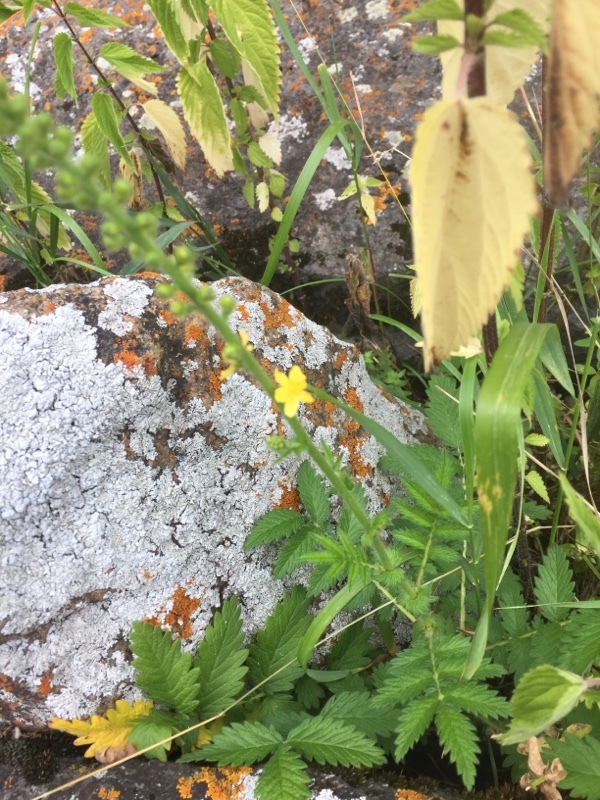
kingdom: Plantae
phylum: Tracheophyta
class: Magnoliopsida
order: Rosales
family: Rosaceae
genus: Agrimonia
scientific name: Agrimonia eupatoria
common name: Agrimony
